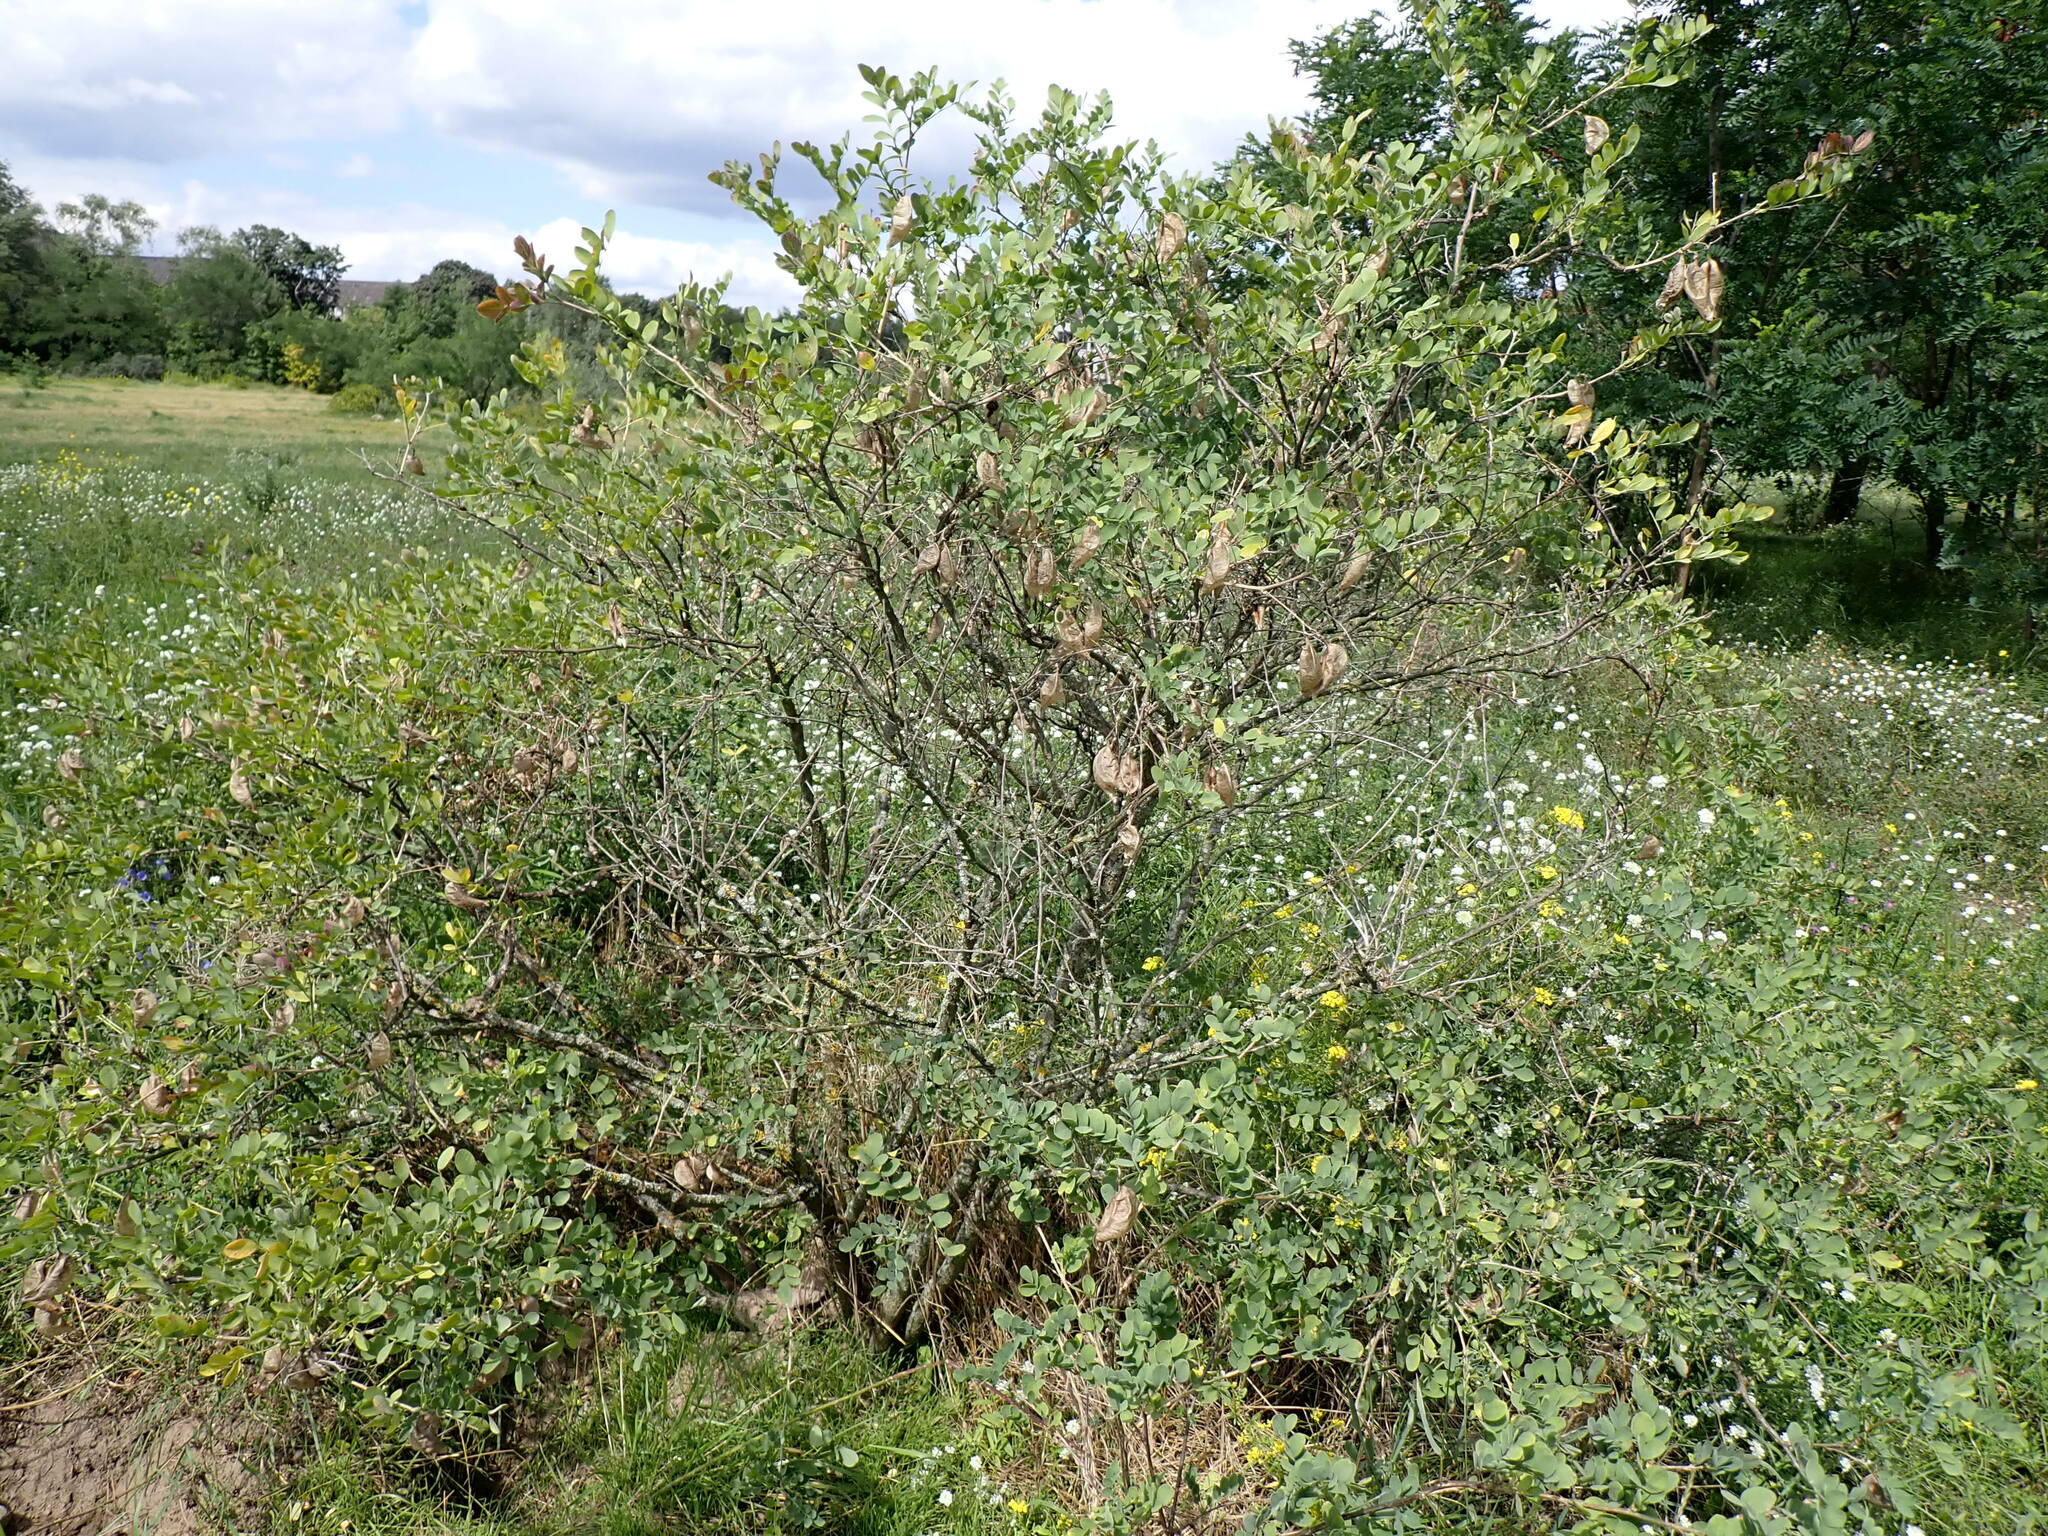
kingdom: Plantae
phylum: Tracheophyta
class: Magnoliopsida
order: Fabales
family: Fabaceae
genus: Colutea
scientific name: Colutea arborescens
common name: Bladder-senna
